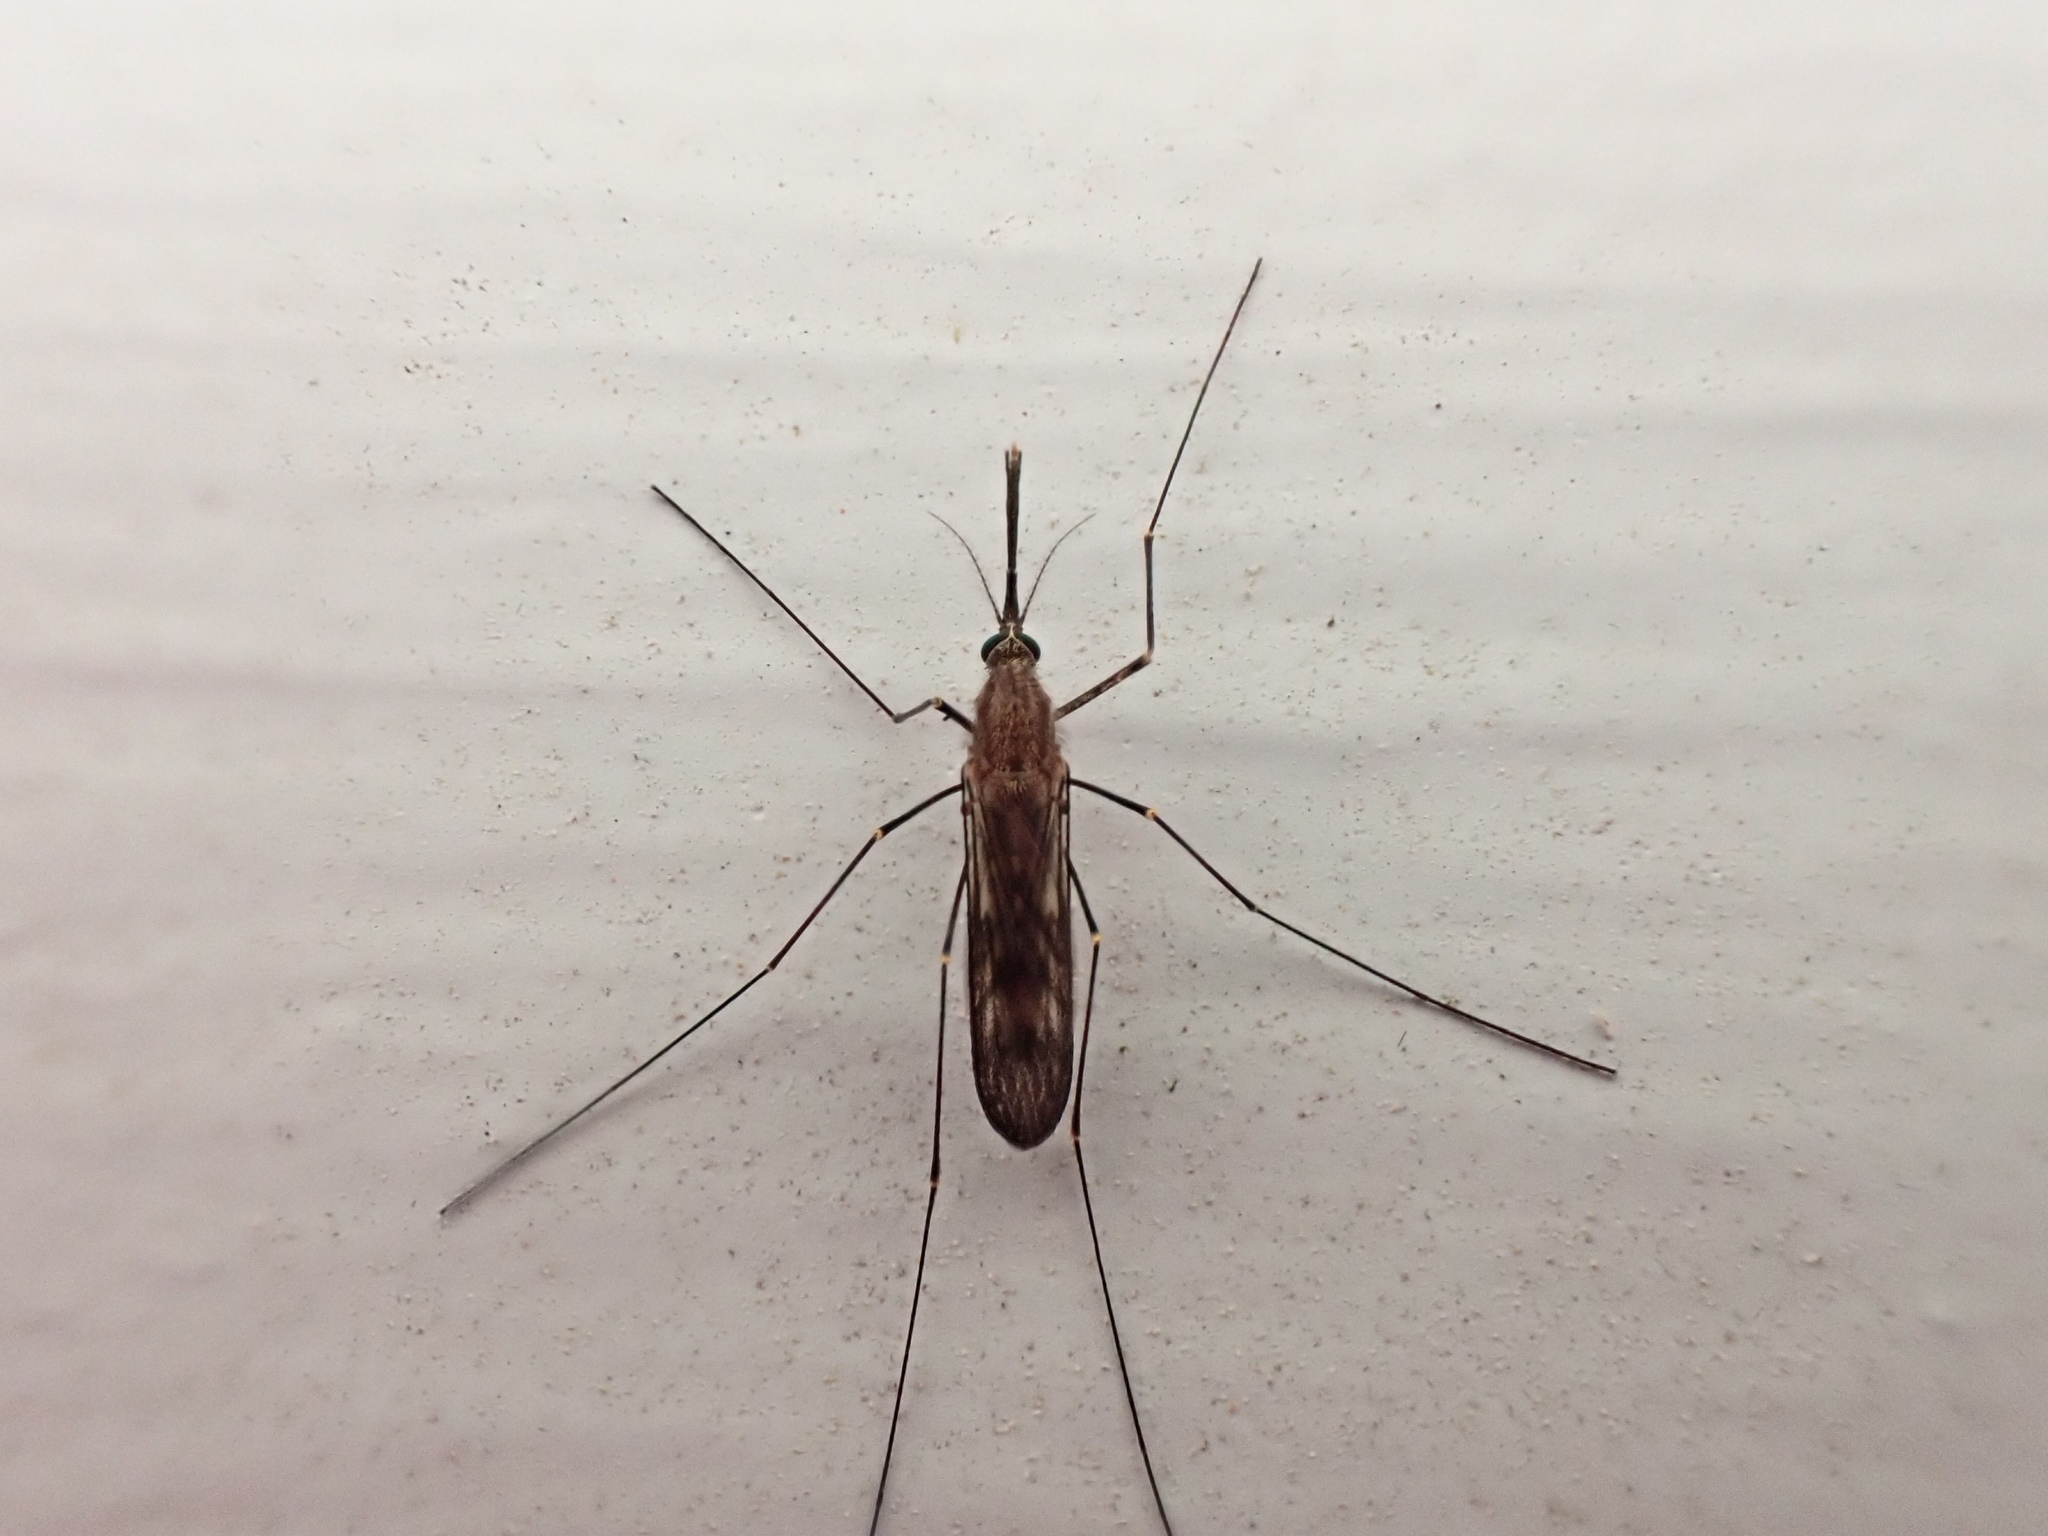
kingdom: Animalia
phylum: Arthropoda
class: Insecta
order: Diptera
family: Culicidae
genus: Anopheles
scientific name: Anopheles
